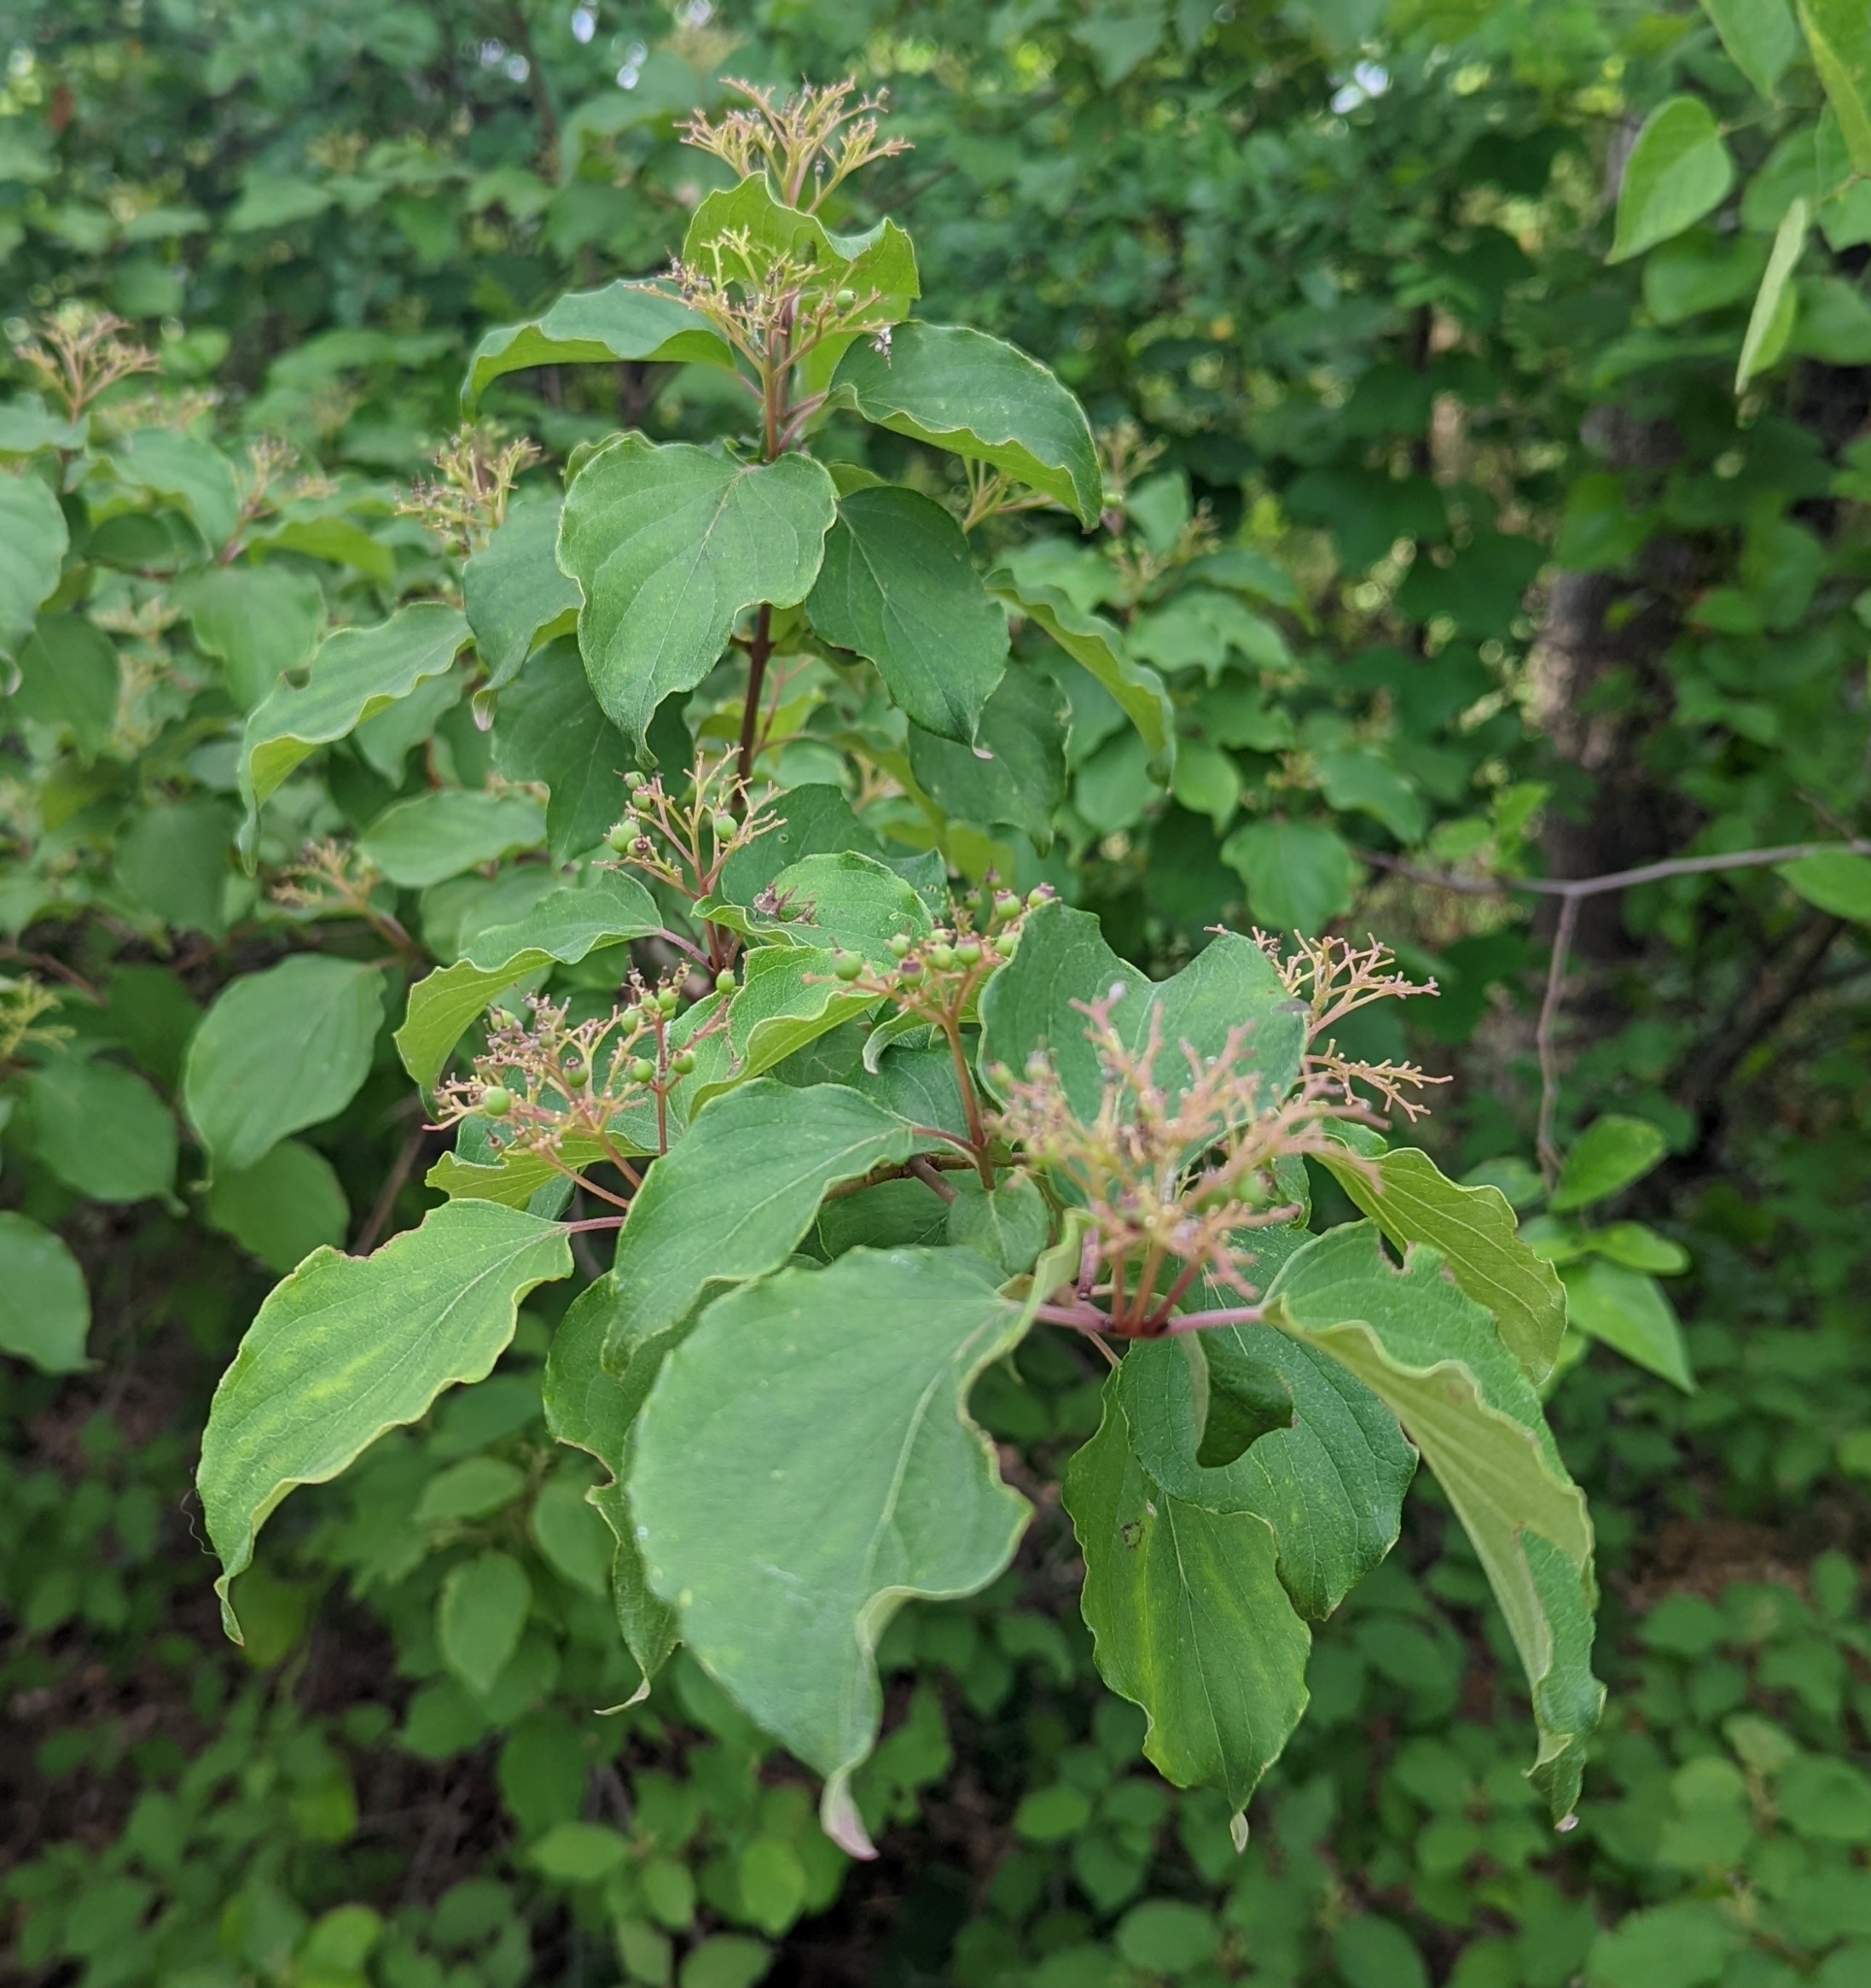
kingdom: Plantae
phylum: Tracheophyta
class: Magnoliopsida
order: Cornales
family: Cornaceae
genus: Cornus
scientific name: Cornus drummondii
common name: Rough-leaf dogwood
